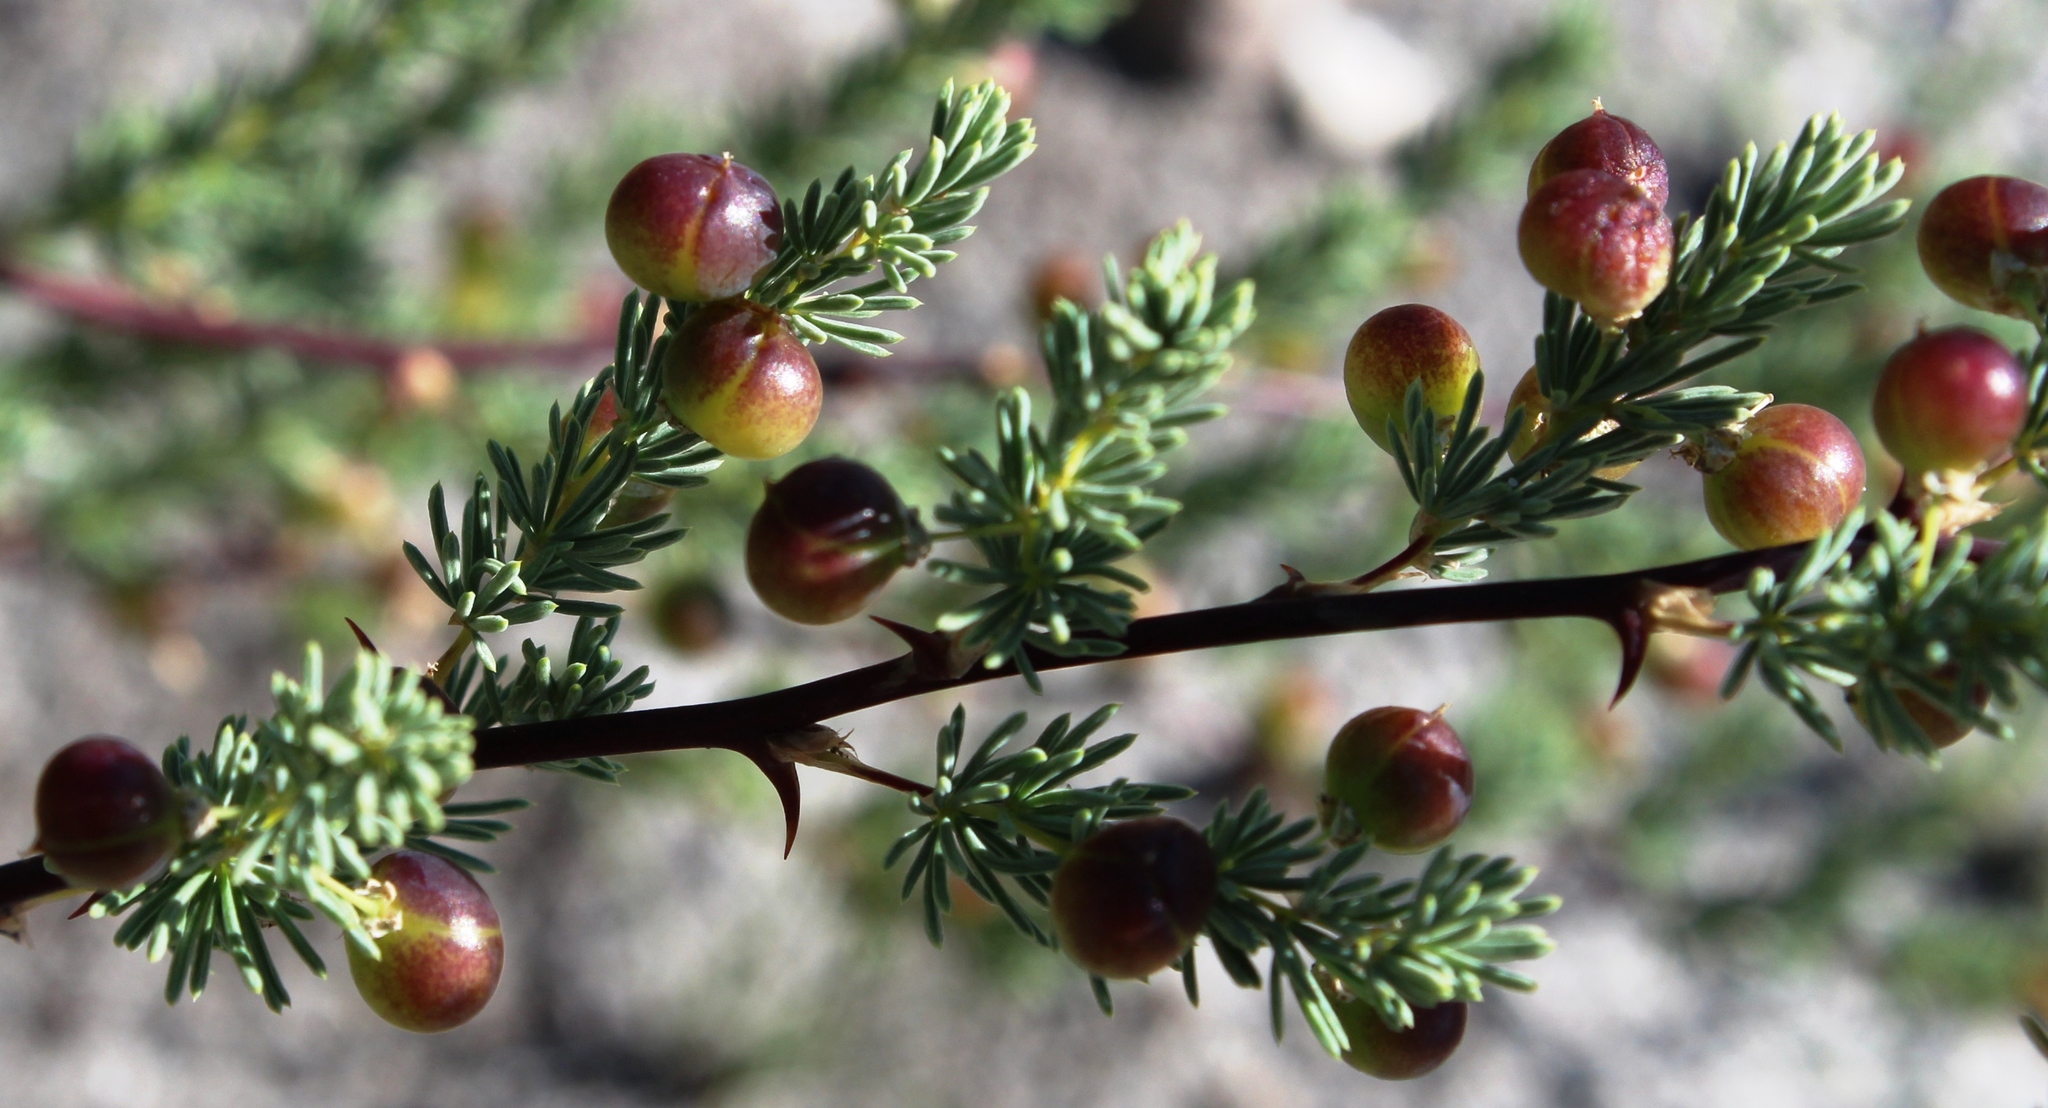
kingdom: Plantae
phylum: Tracheophyta
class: Liliopsida
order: Asparagales
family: Asparagaceae
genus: Asparagus
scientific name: Asparagus rubicundus
